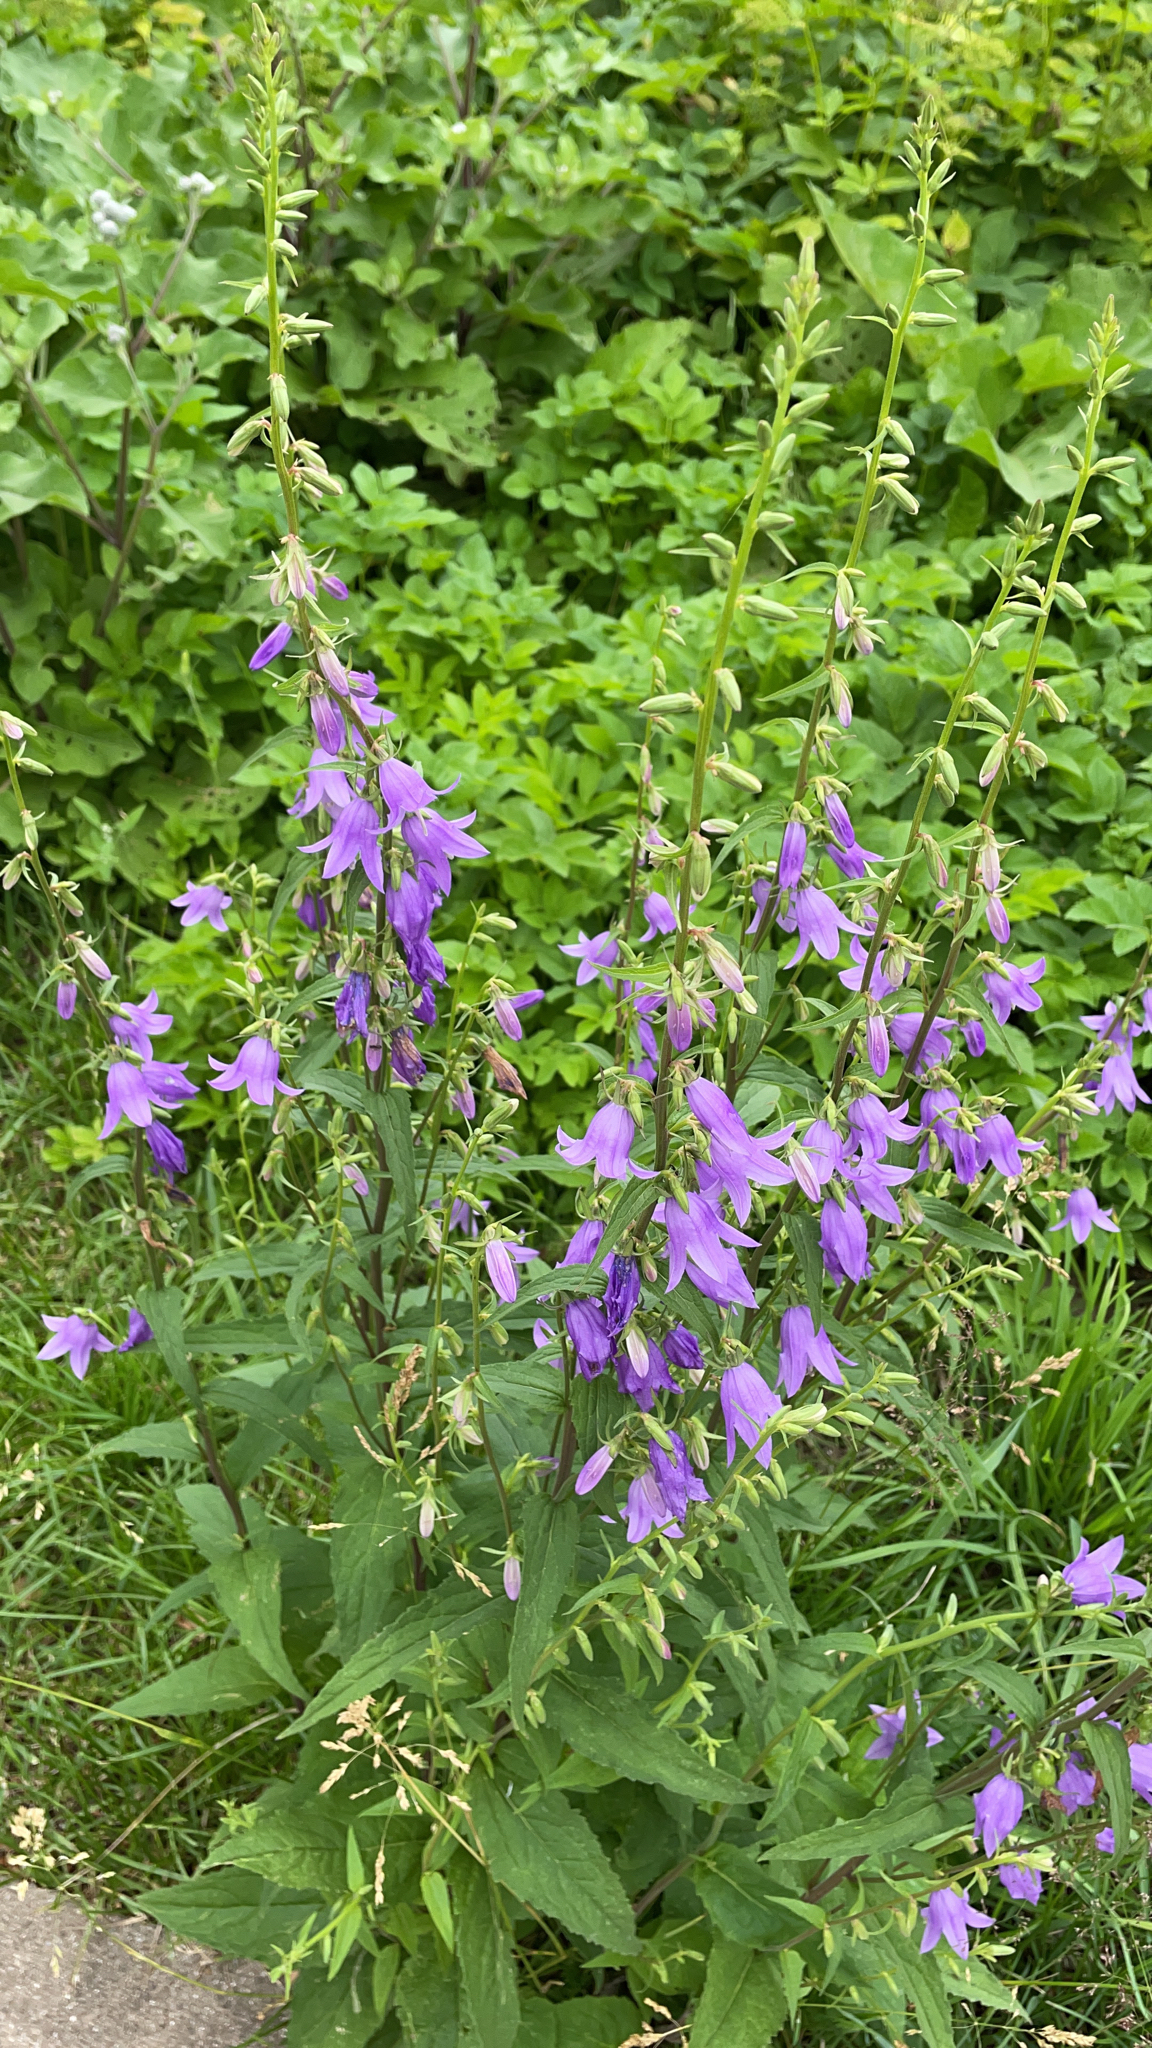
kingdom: Plantae
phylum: Tracheophyta
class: Magnoliopsida
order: Asterales
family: Campanulaceae
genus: Campanula
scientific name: Campanula rapunculoides
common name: Creeping bellflower
